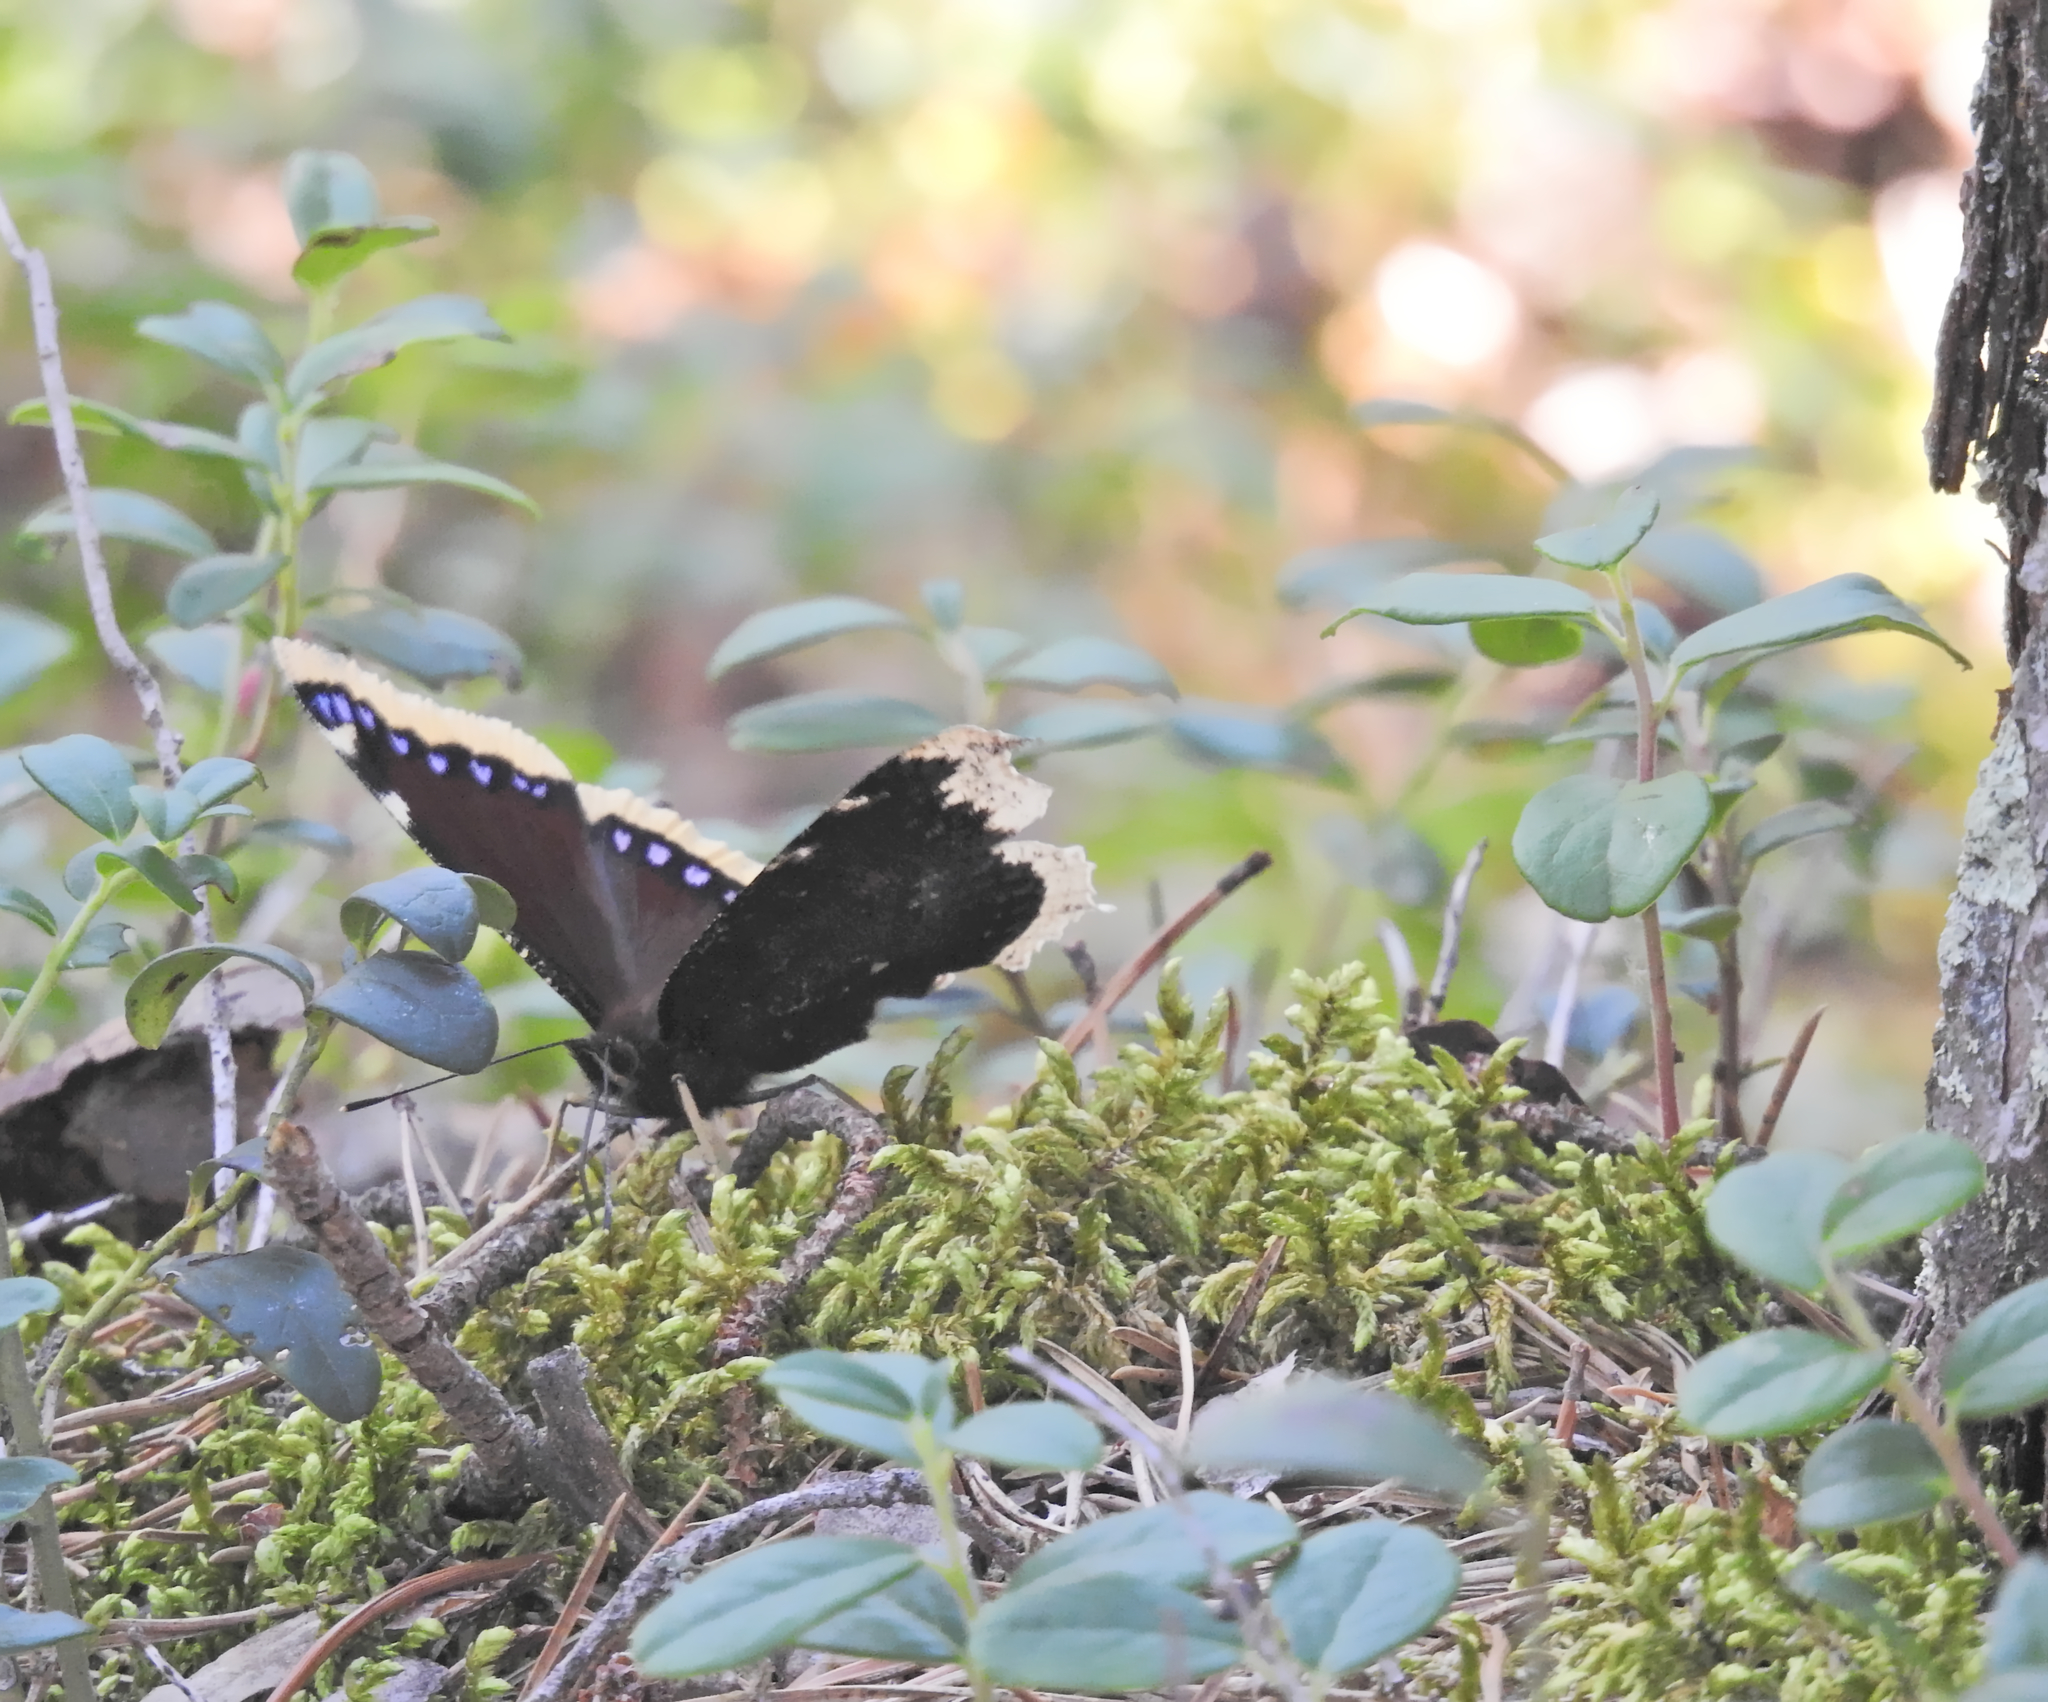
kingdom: Animalia
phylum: Arthropoda
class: Insecta
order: Lepidoptera
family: Nymphalidae
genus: Nymphalis
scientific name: Nymphalis antiopa
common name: Camberwell beauty
